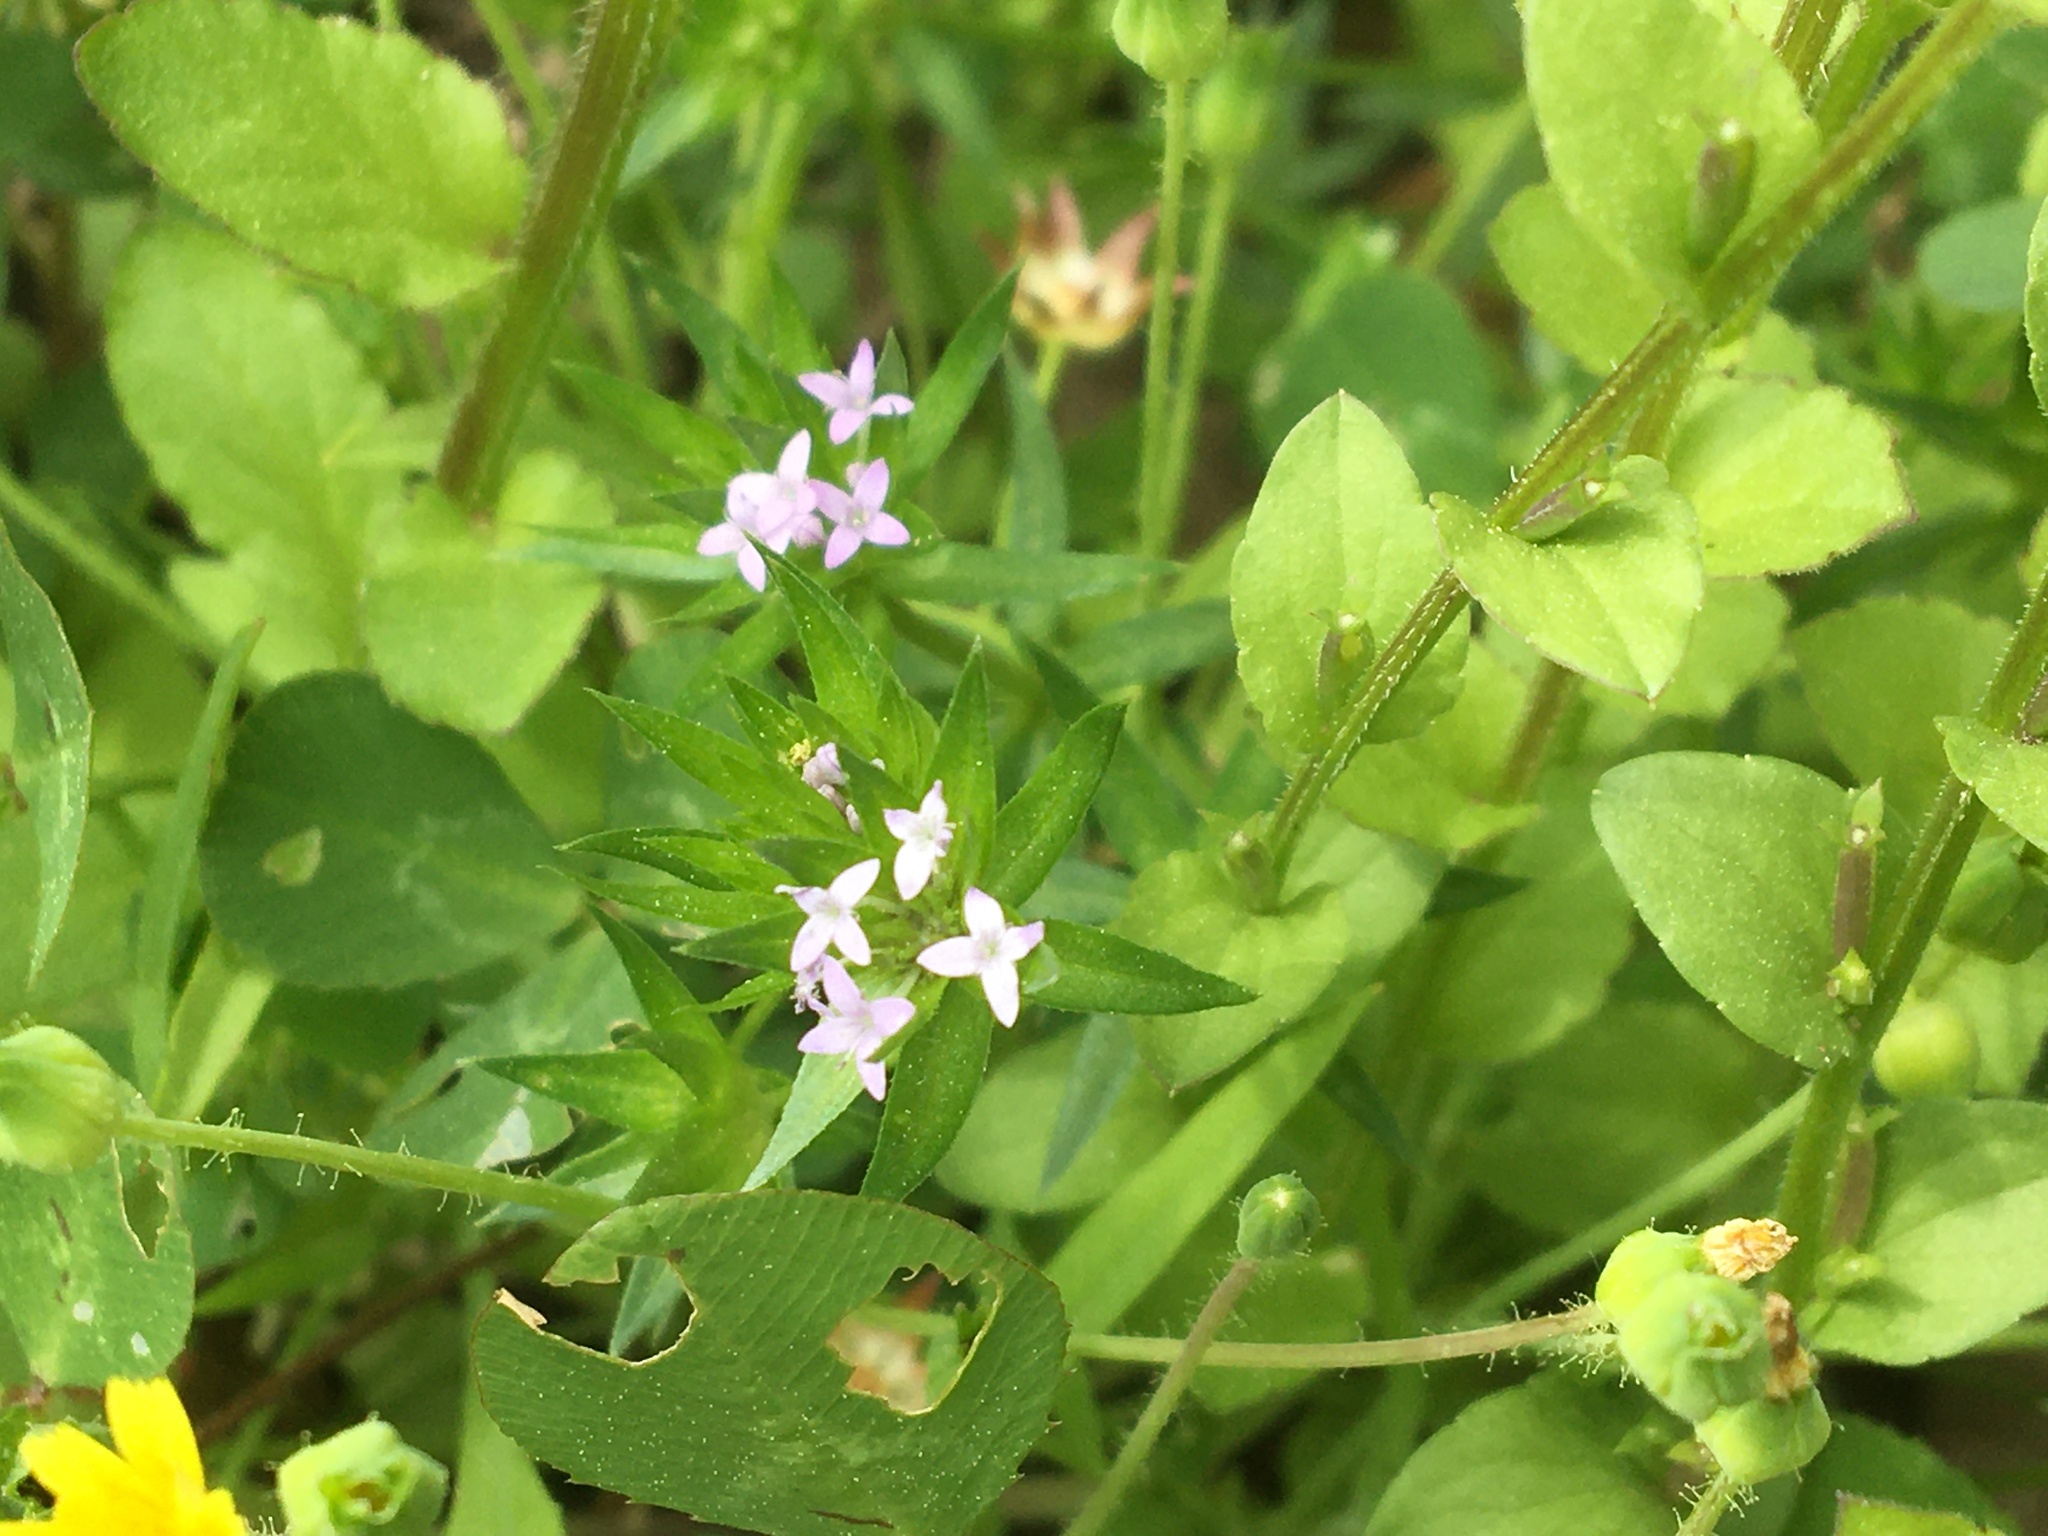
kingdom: Plantae
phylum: Tracheophyta
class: Magnoliopsida
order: Gentianales
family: Rubiaceae
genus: Sherardia
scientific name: Sherardia arvensis
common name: Field madder
